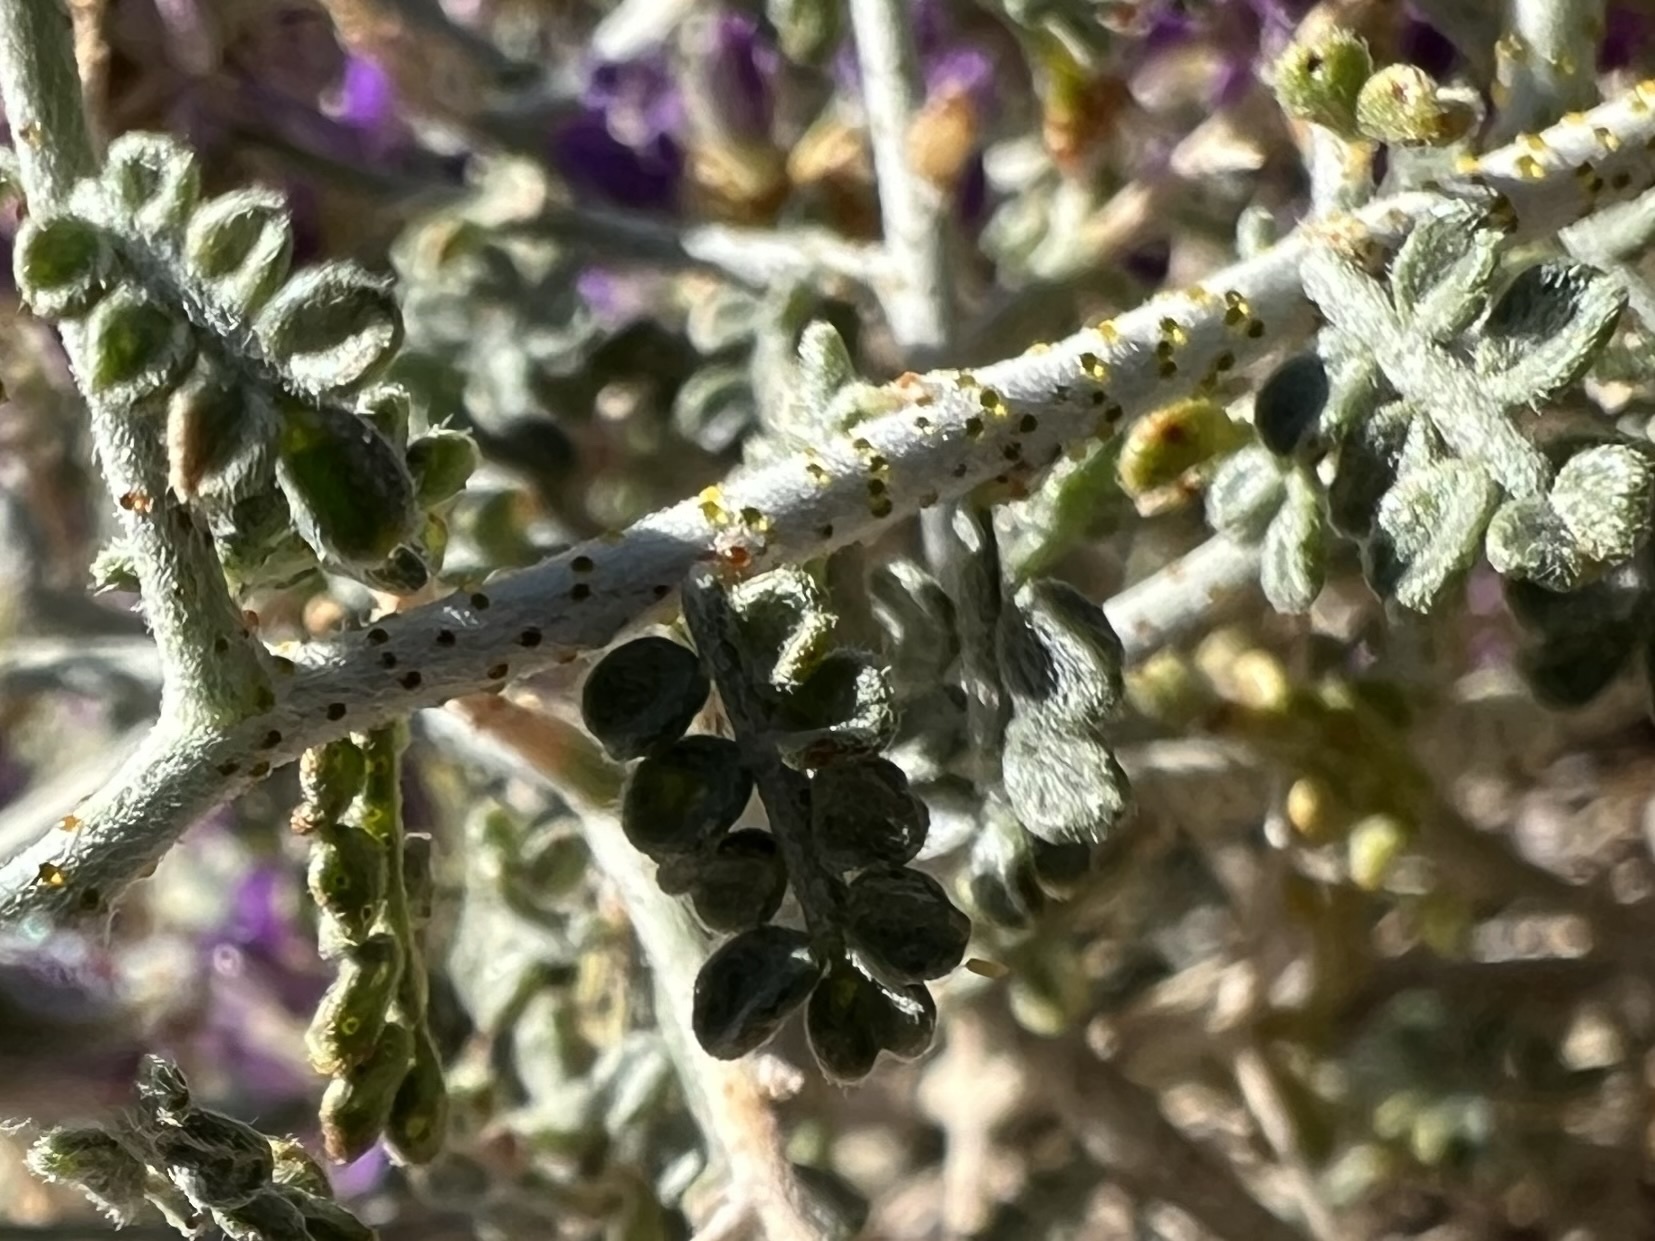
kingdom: Plantae
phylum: Tracheophyta
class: Magnoliopsida
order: Fabales
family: Fabaceae
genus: Psorothamnus
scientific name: Psorothamnus polydenius
